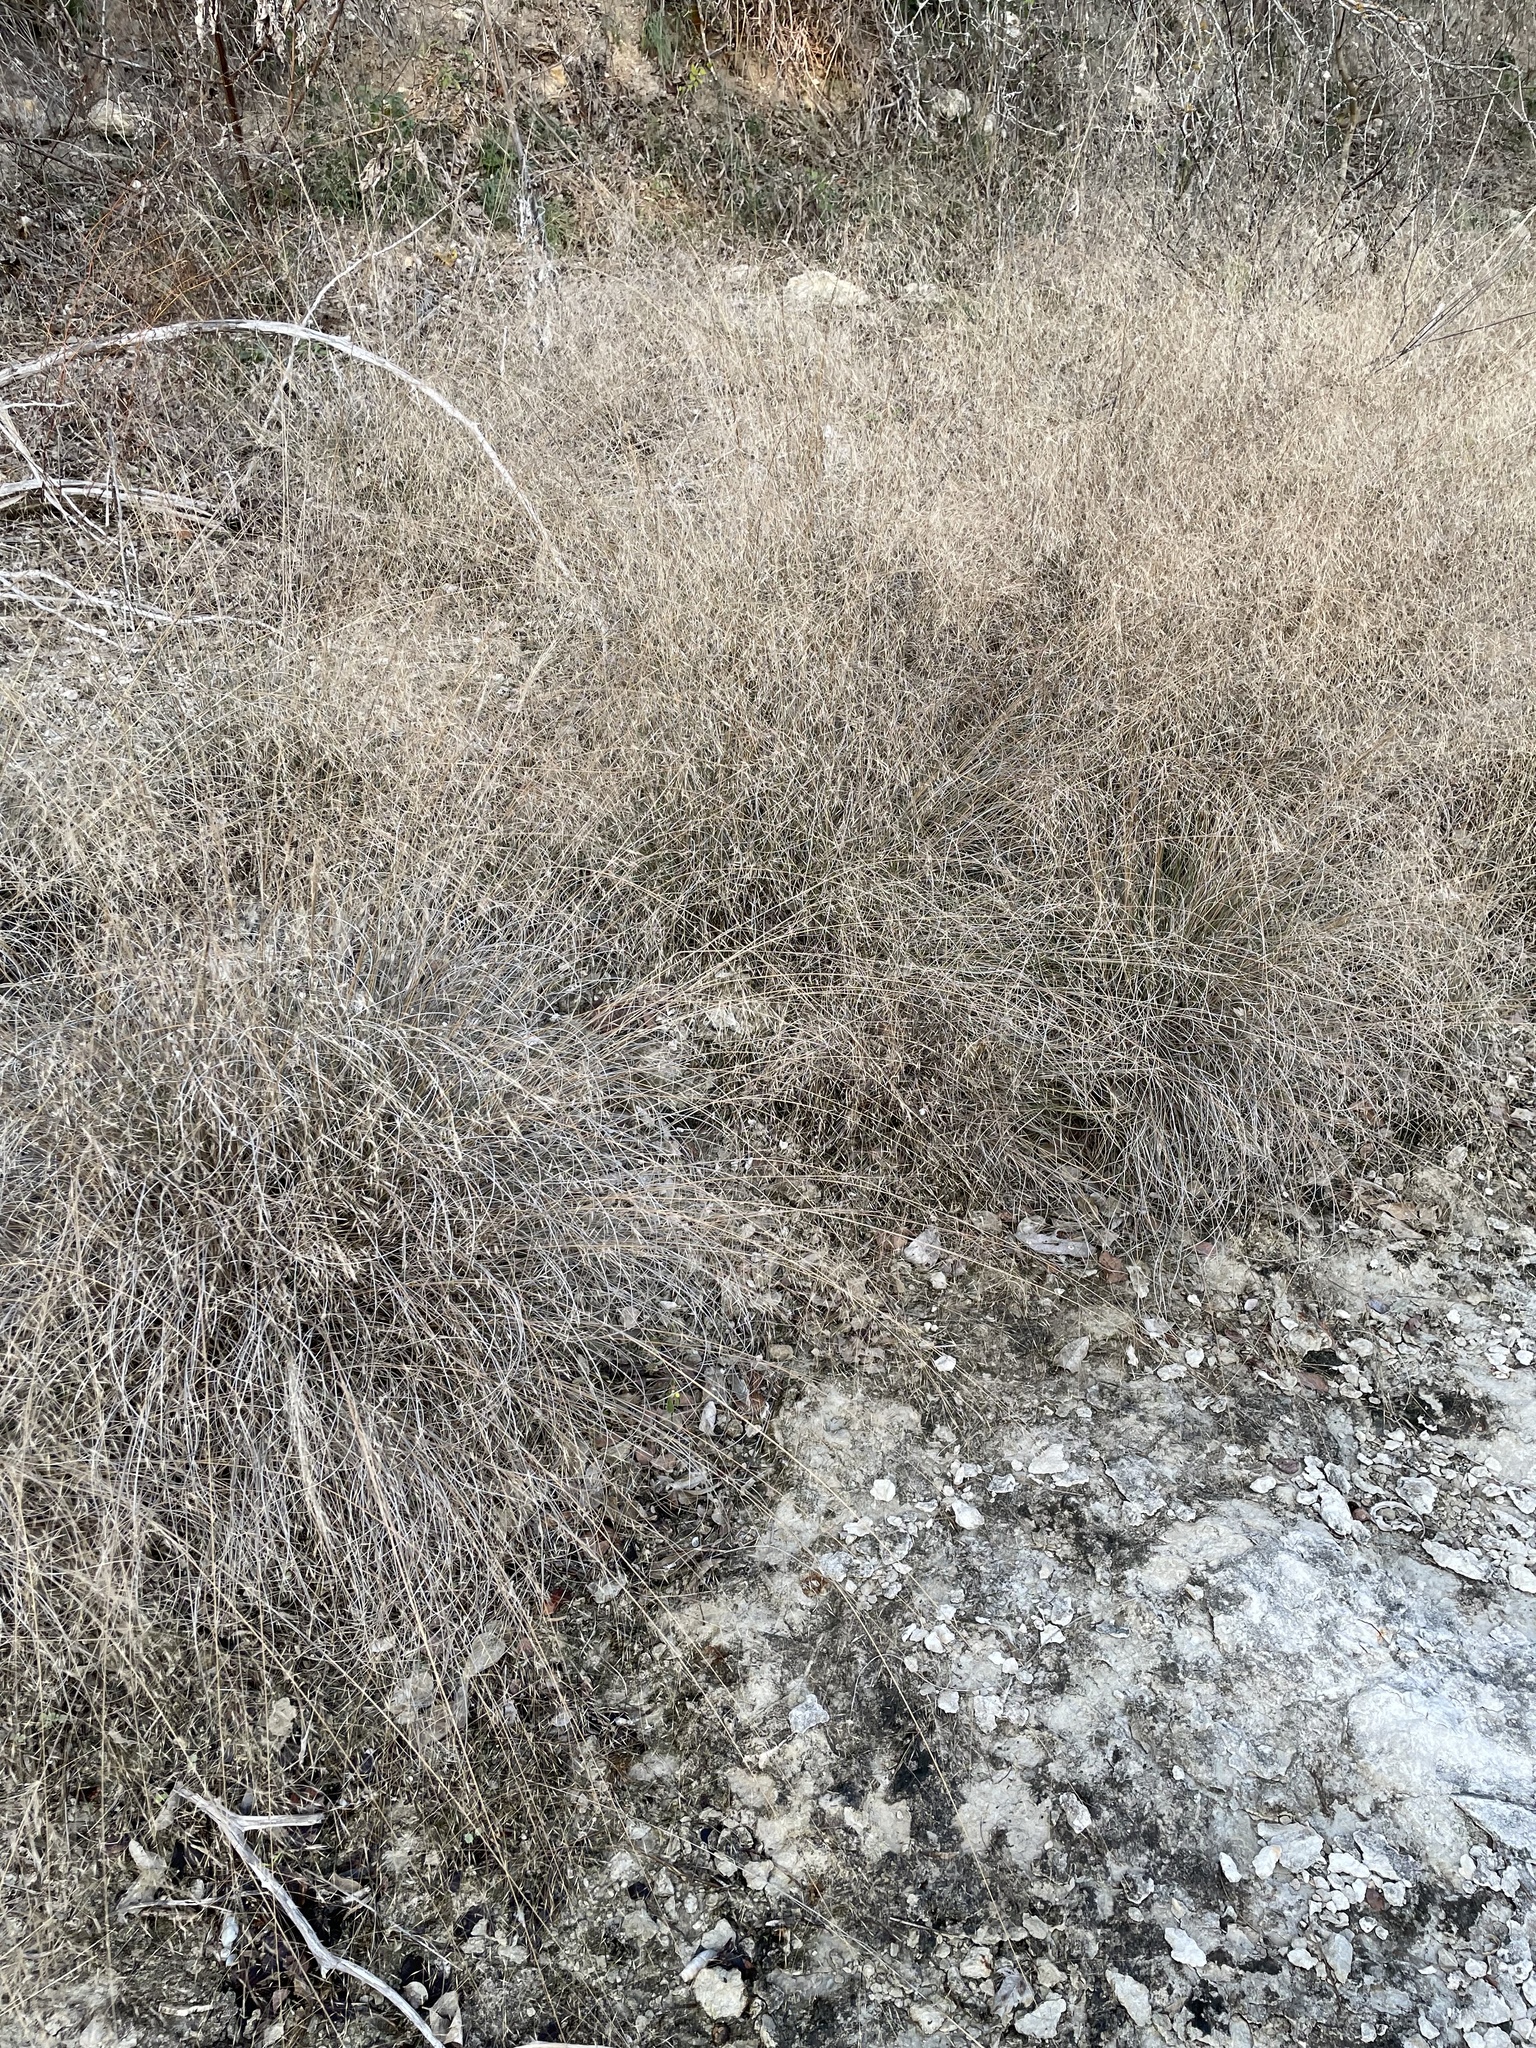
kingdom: Plantae
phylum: Tracheophyta
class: Liliopsida
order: Poales
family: Poaceae
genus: Muhlenbergia
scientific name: Muhlenbergia reverchonii
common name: Seep muhly
